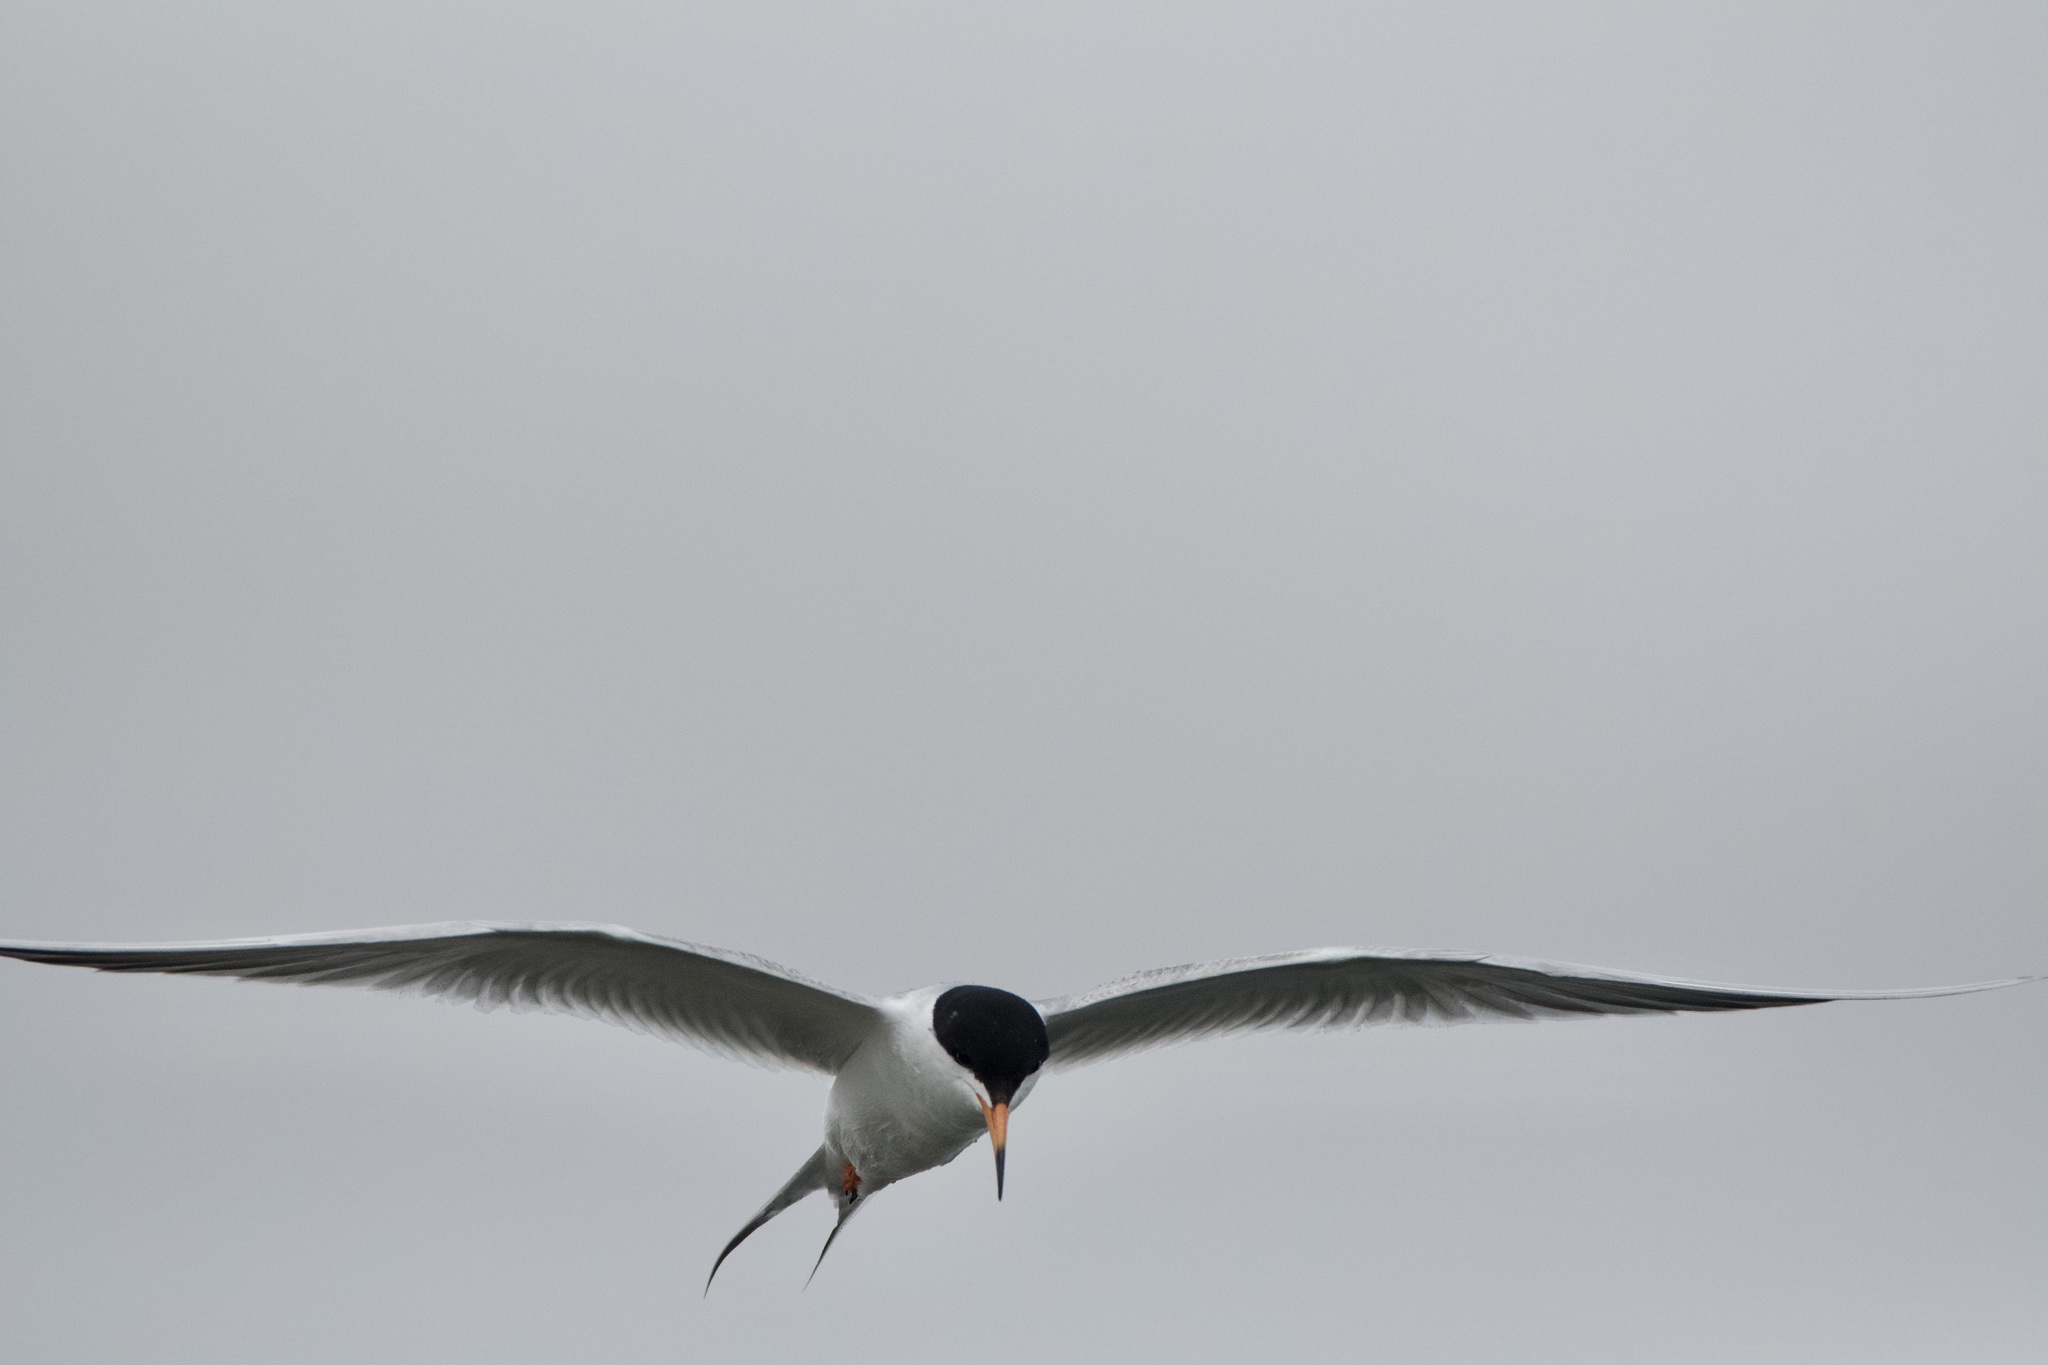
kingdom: Animalia
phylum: Chordata
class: Aves
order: Charadriiformes
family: Laridae
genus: Sterna
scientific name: Sterna forsteri
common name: Forster's tern
